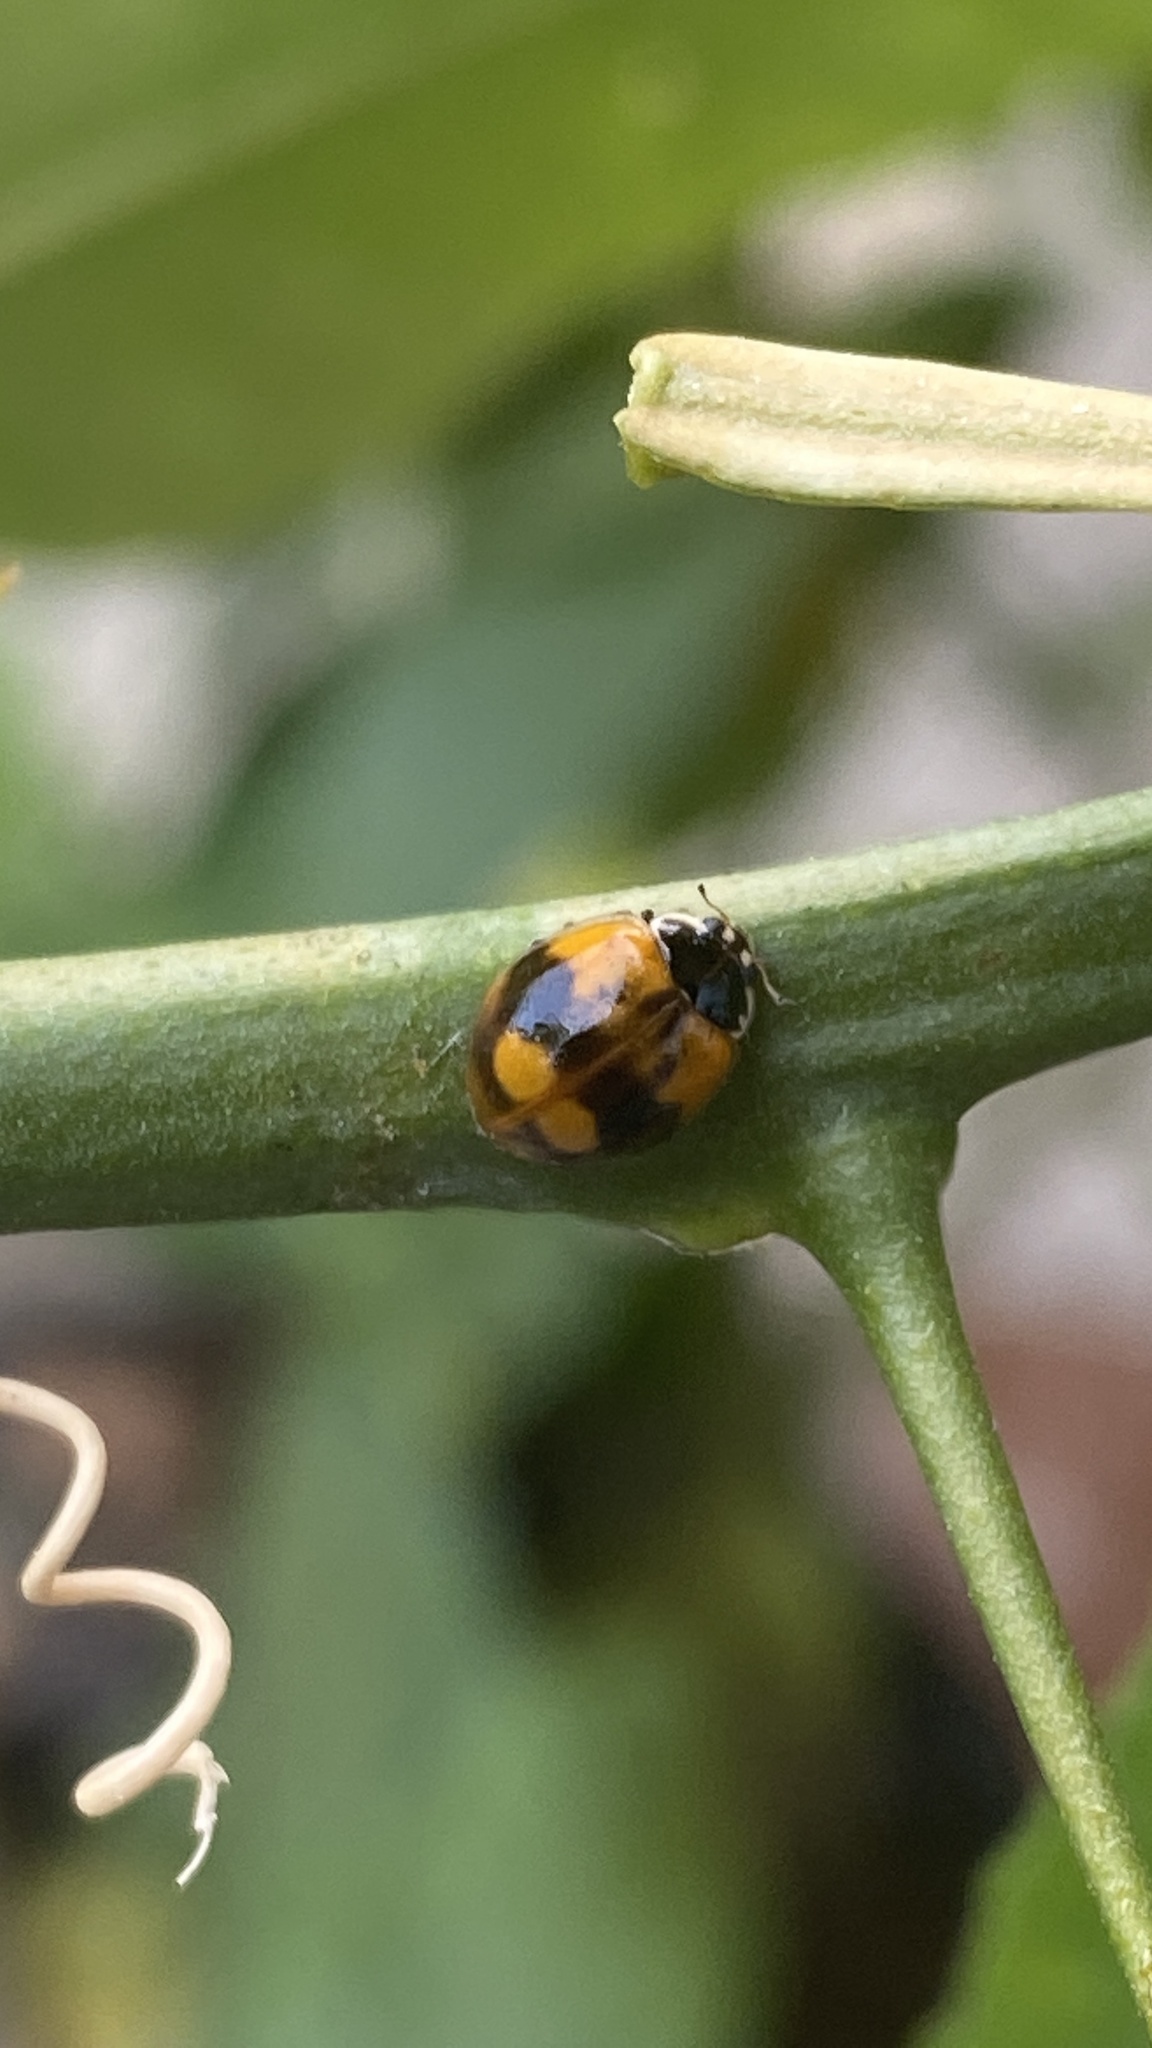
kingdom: Animalia
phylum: Arthropoda
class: Insecta
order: Coleoptera
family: Coccinellidae
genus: Adalia
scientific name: Adalia bipunctata
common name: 2-spot ladybird
